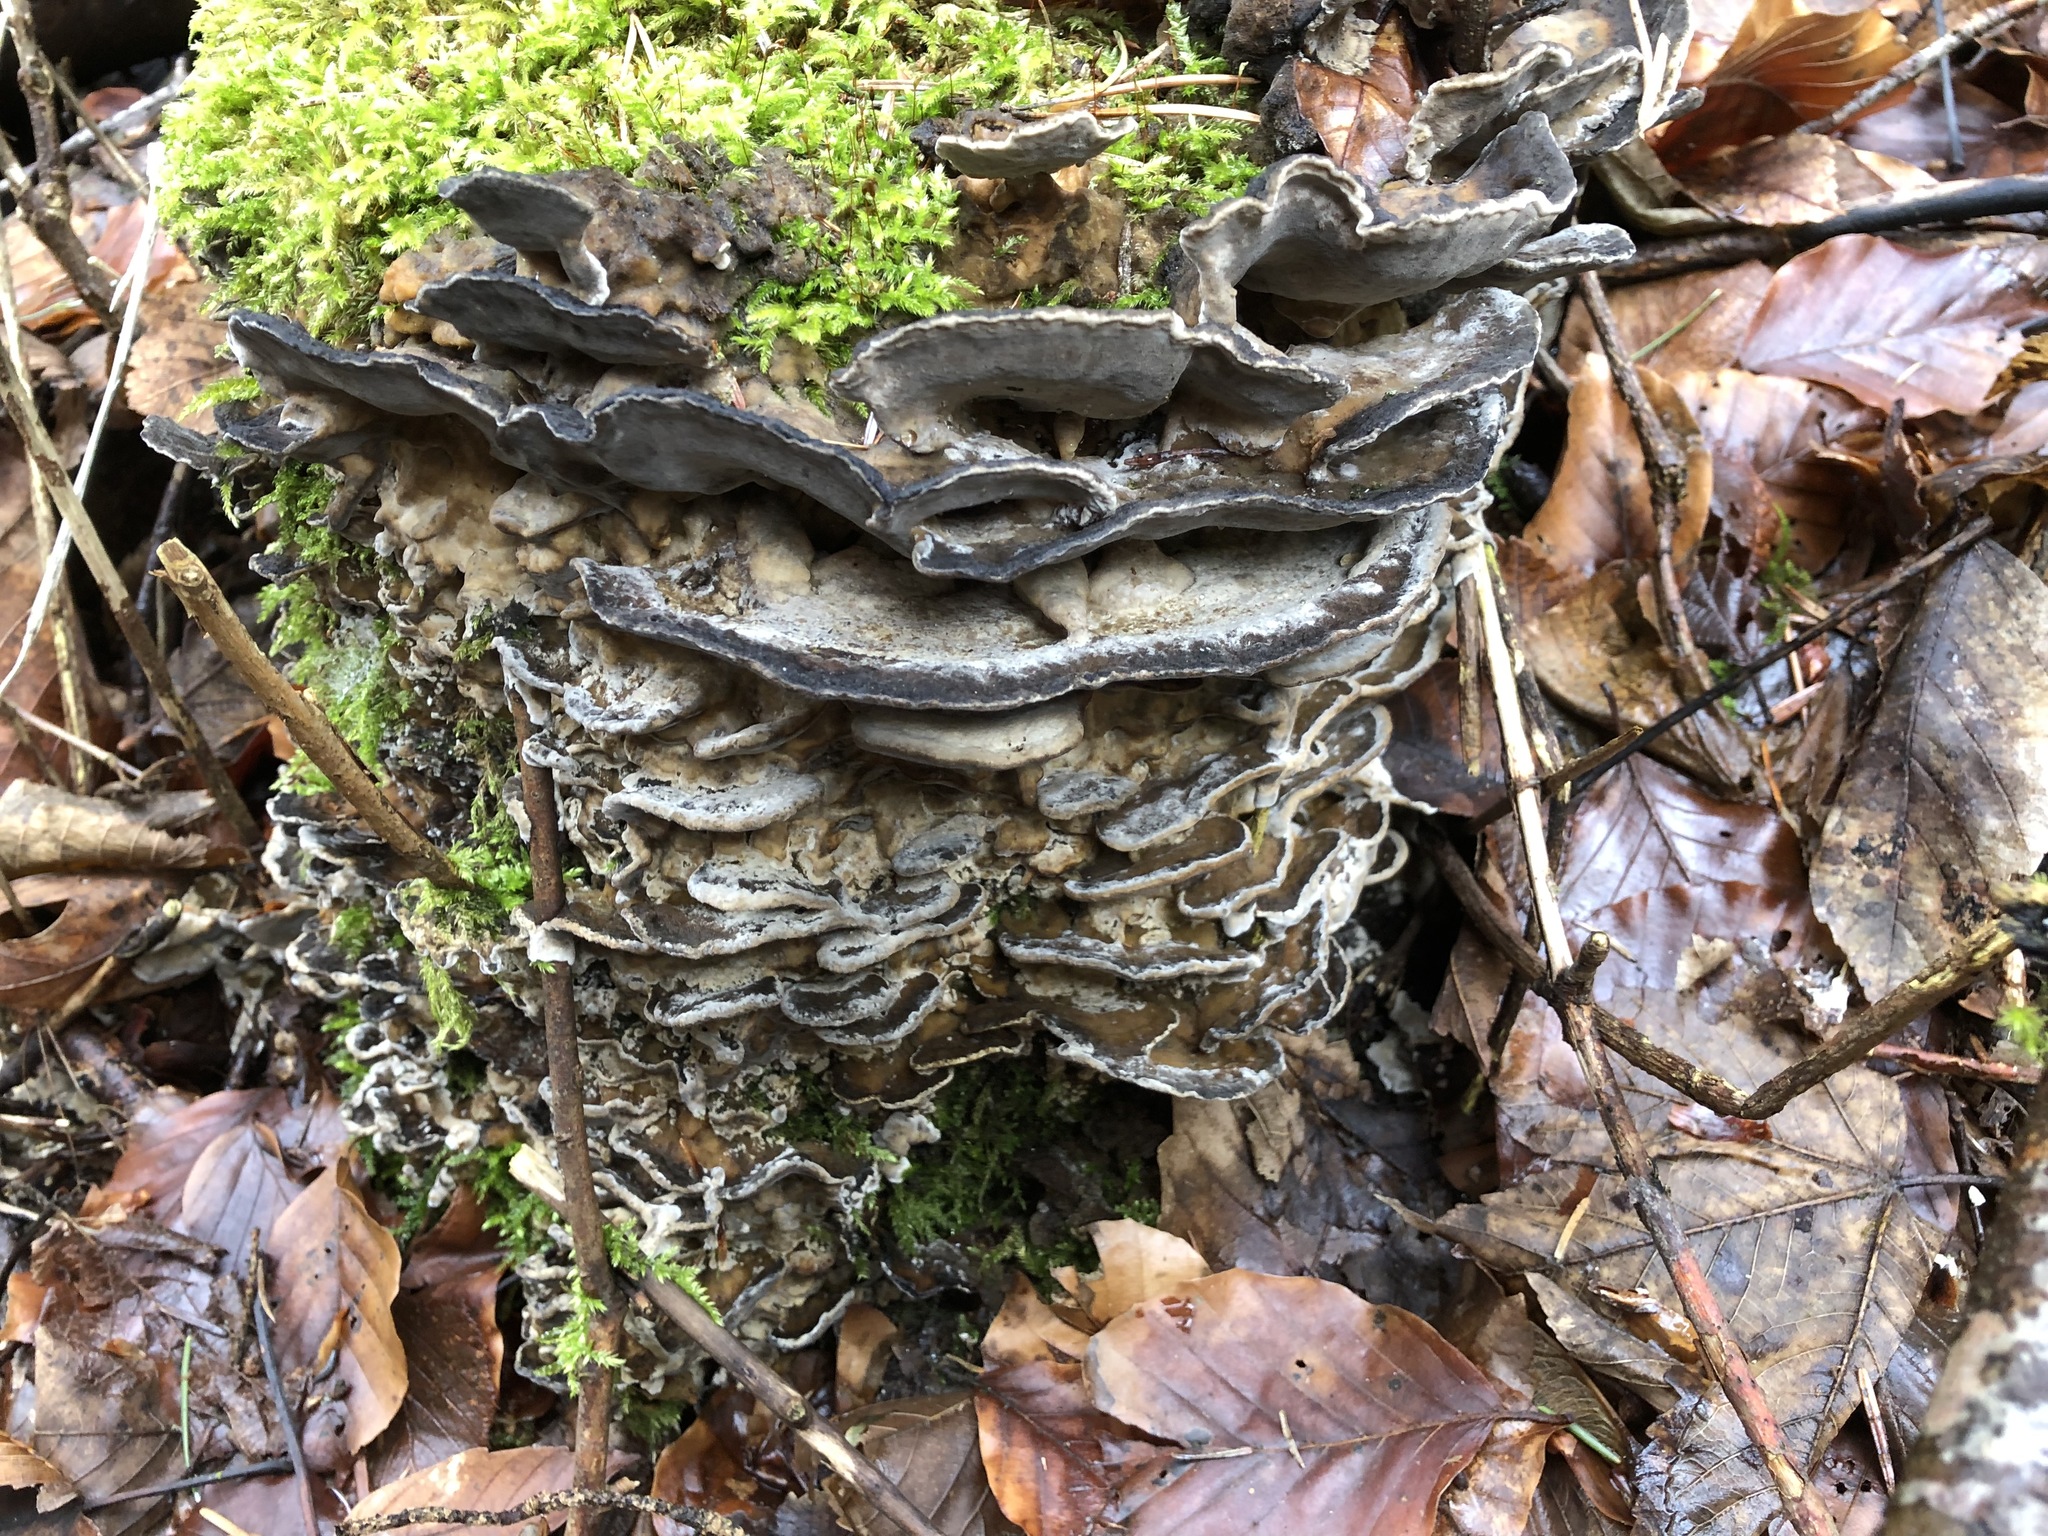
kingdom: Fungi
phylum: Basidiomycota
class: Agaricomycetes
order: Polyporales
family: Phanerochaetaceae
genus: Bjerkandera
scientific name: Bjerkandera adusta
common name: Smoky bracket
